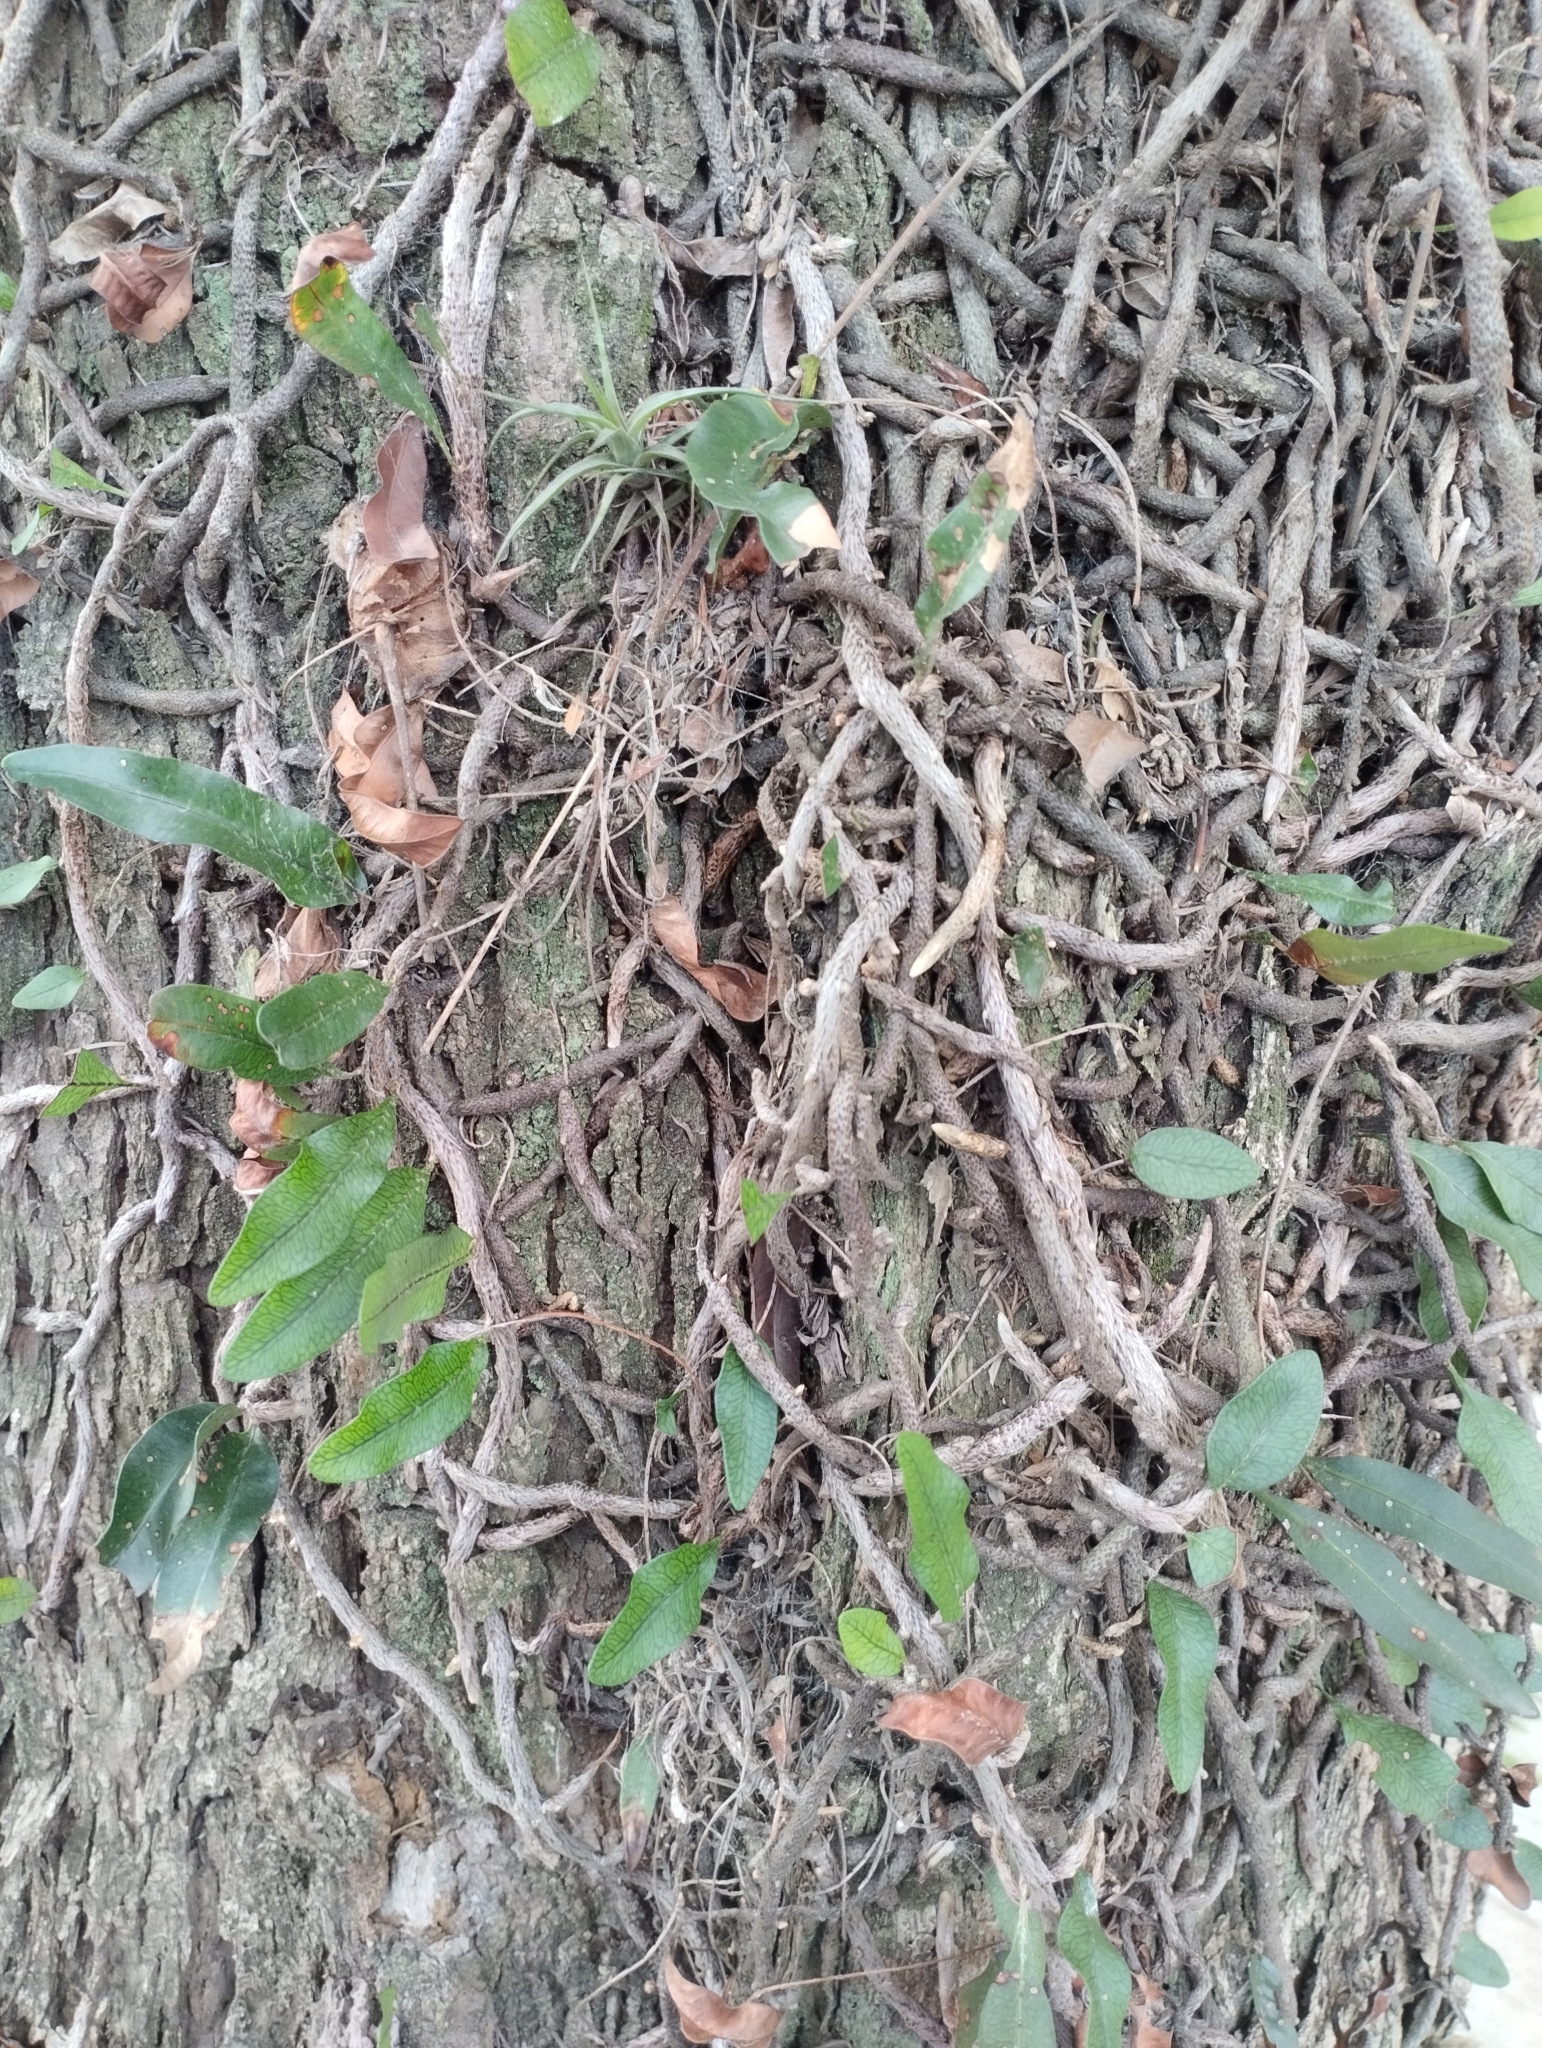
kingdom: Plantae
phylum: Tracheophyta
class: Polypodiopsida
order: Polypodiales
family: Polypodiaceae
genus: Microgramma
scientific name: Microgramma squamulosa
